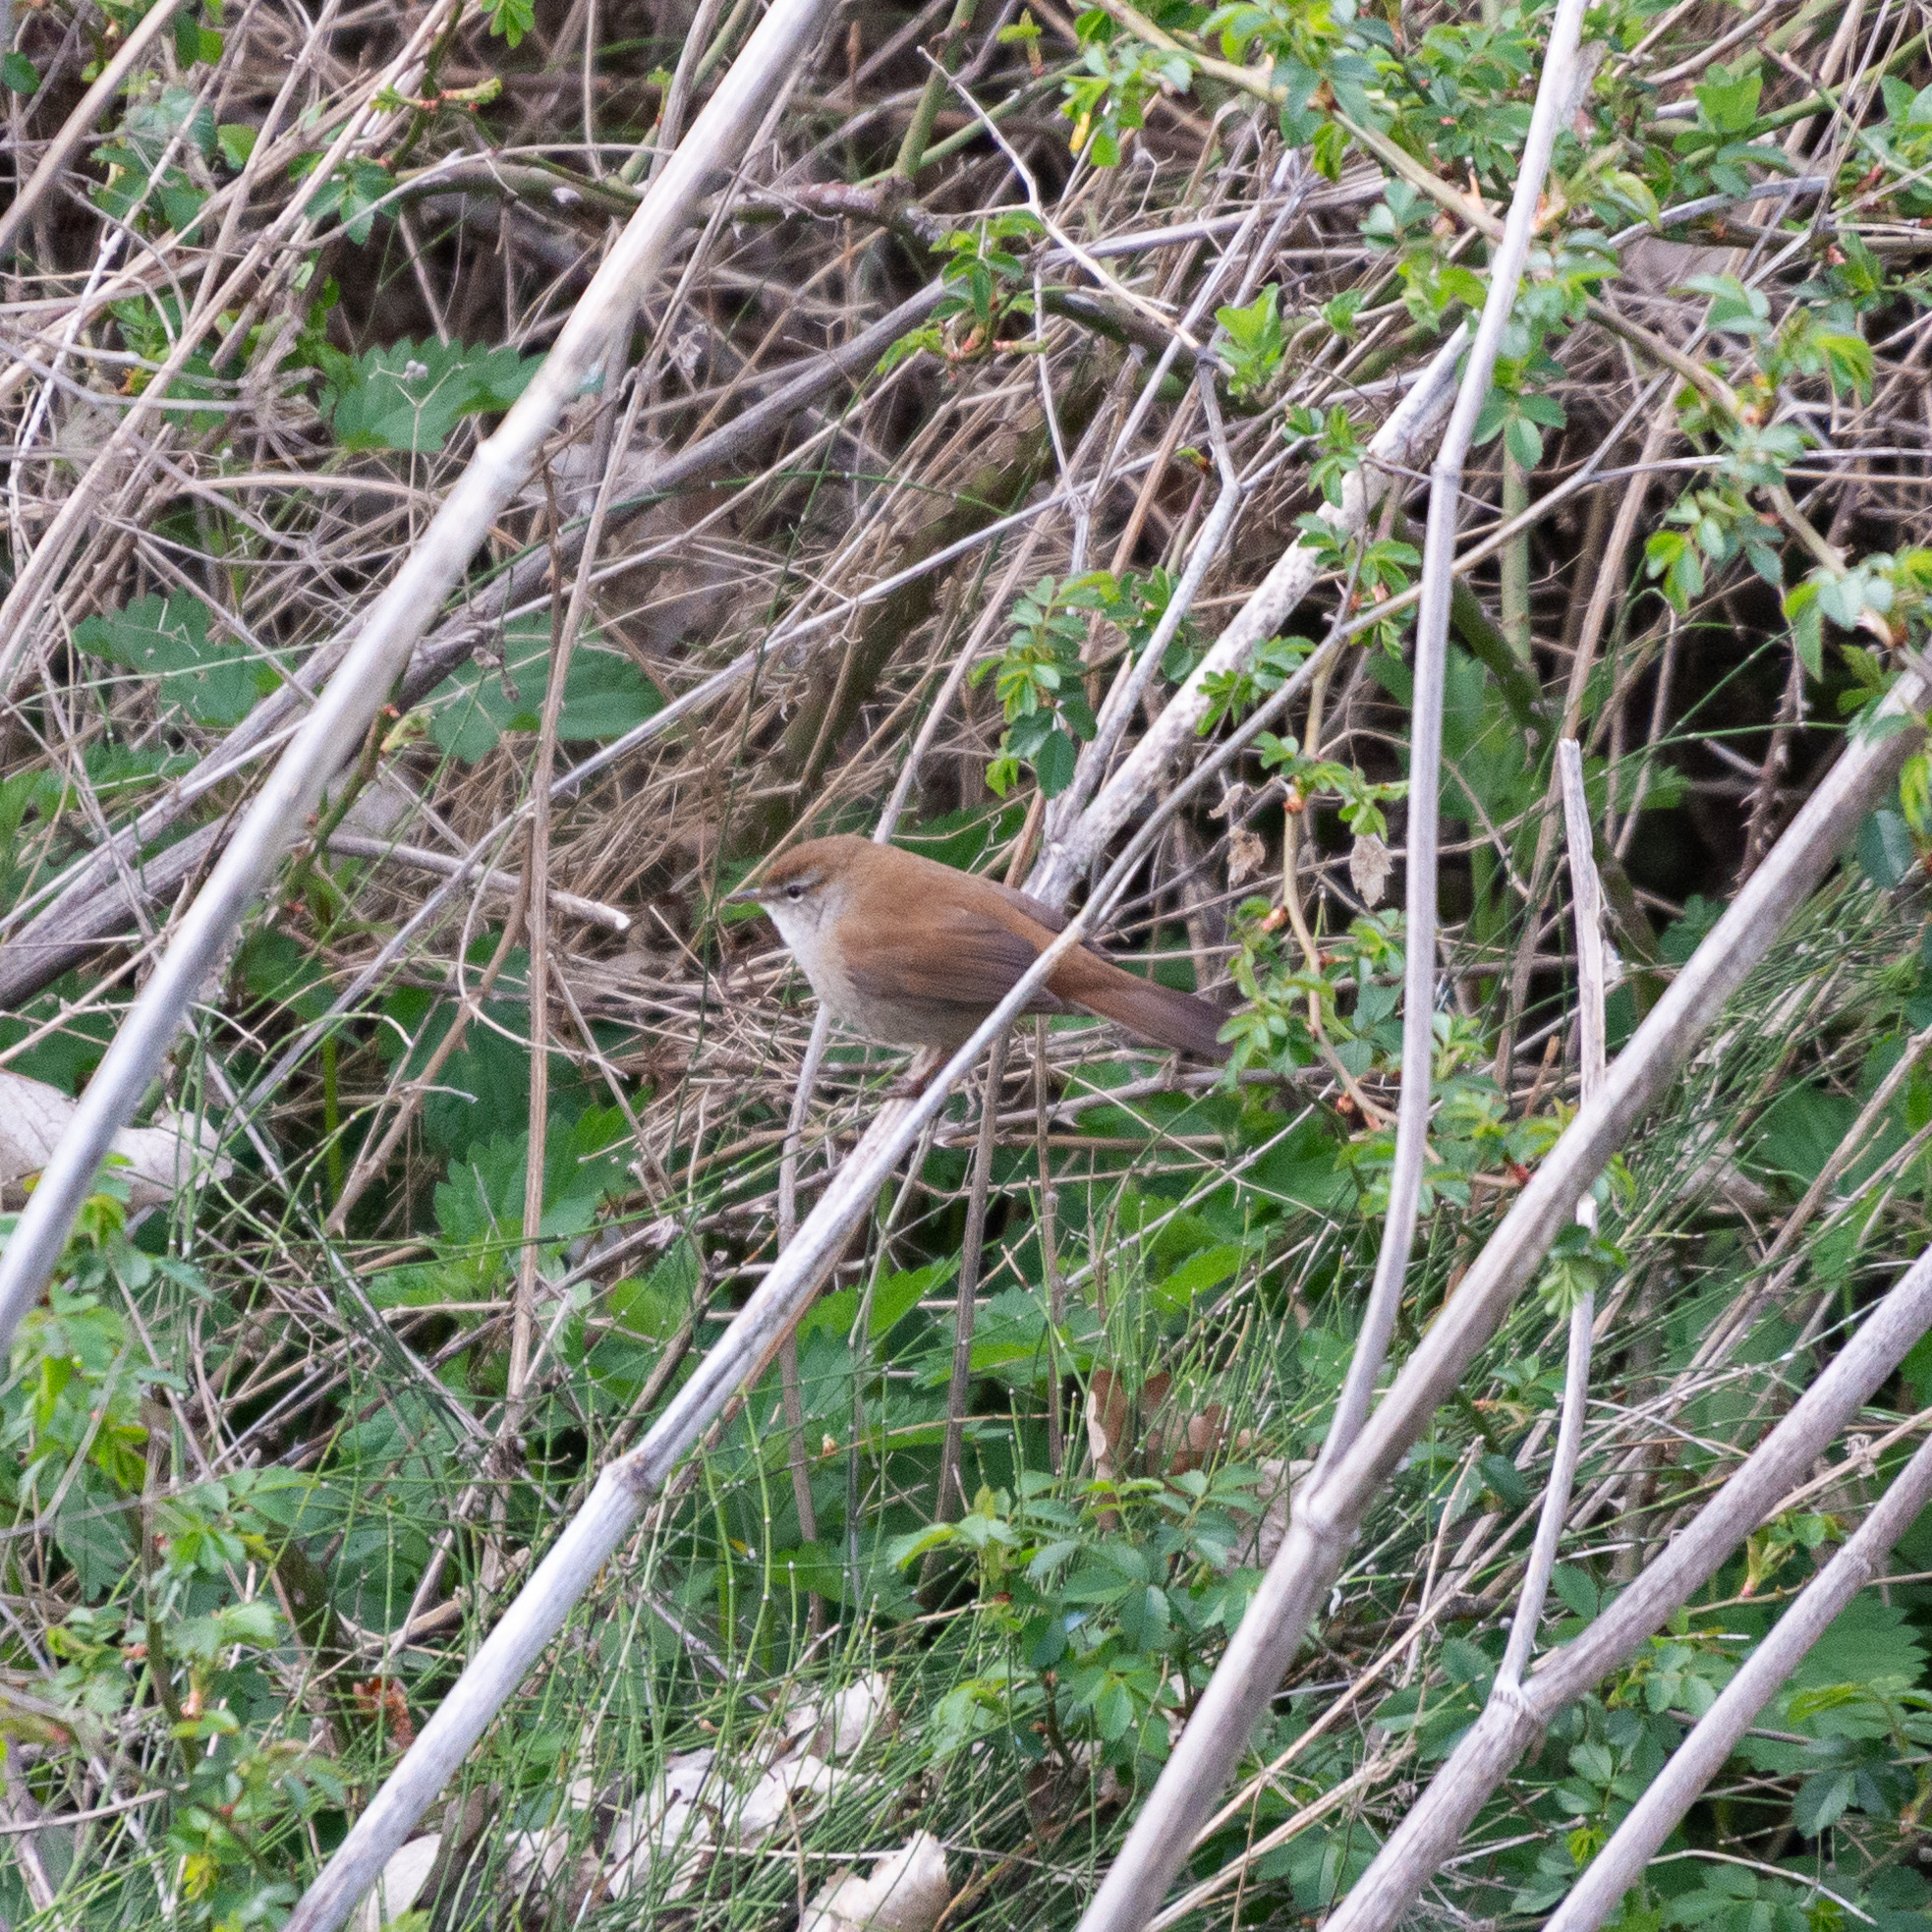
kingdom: Animalia
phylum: Chordata
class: Aves
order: Passeriformes
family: Cettiidae
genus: Cettia
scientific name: Cettia cetti
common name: Cetti's warbler
